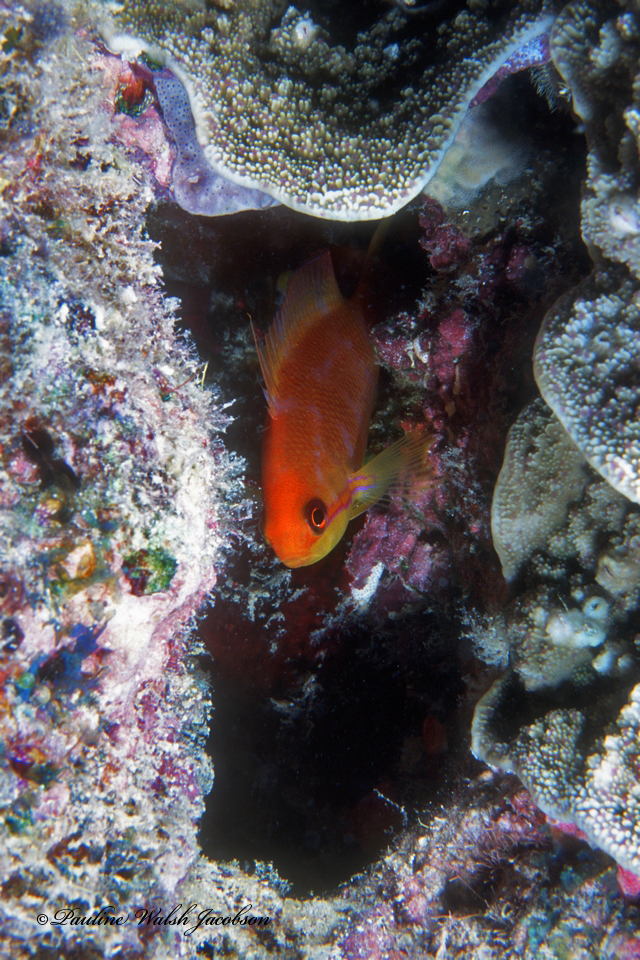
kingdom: Animalia
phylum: Chordata
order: Perciformes
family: Serranidae
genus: Pseudanthias
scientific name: Pseudanthias squamipinnis
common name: Scalefin anthias
